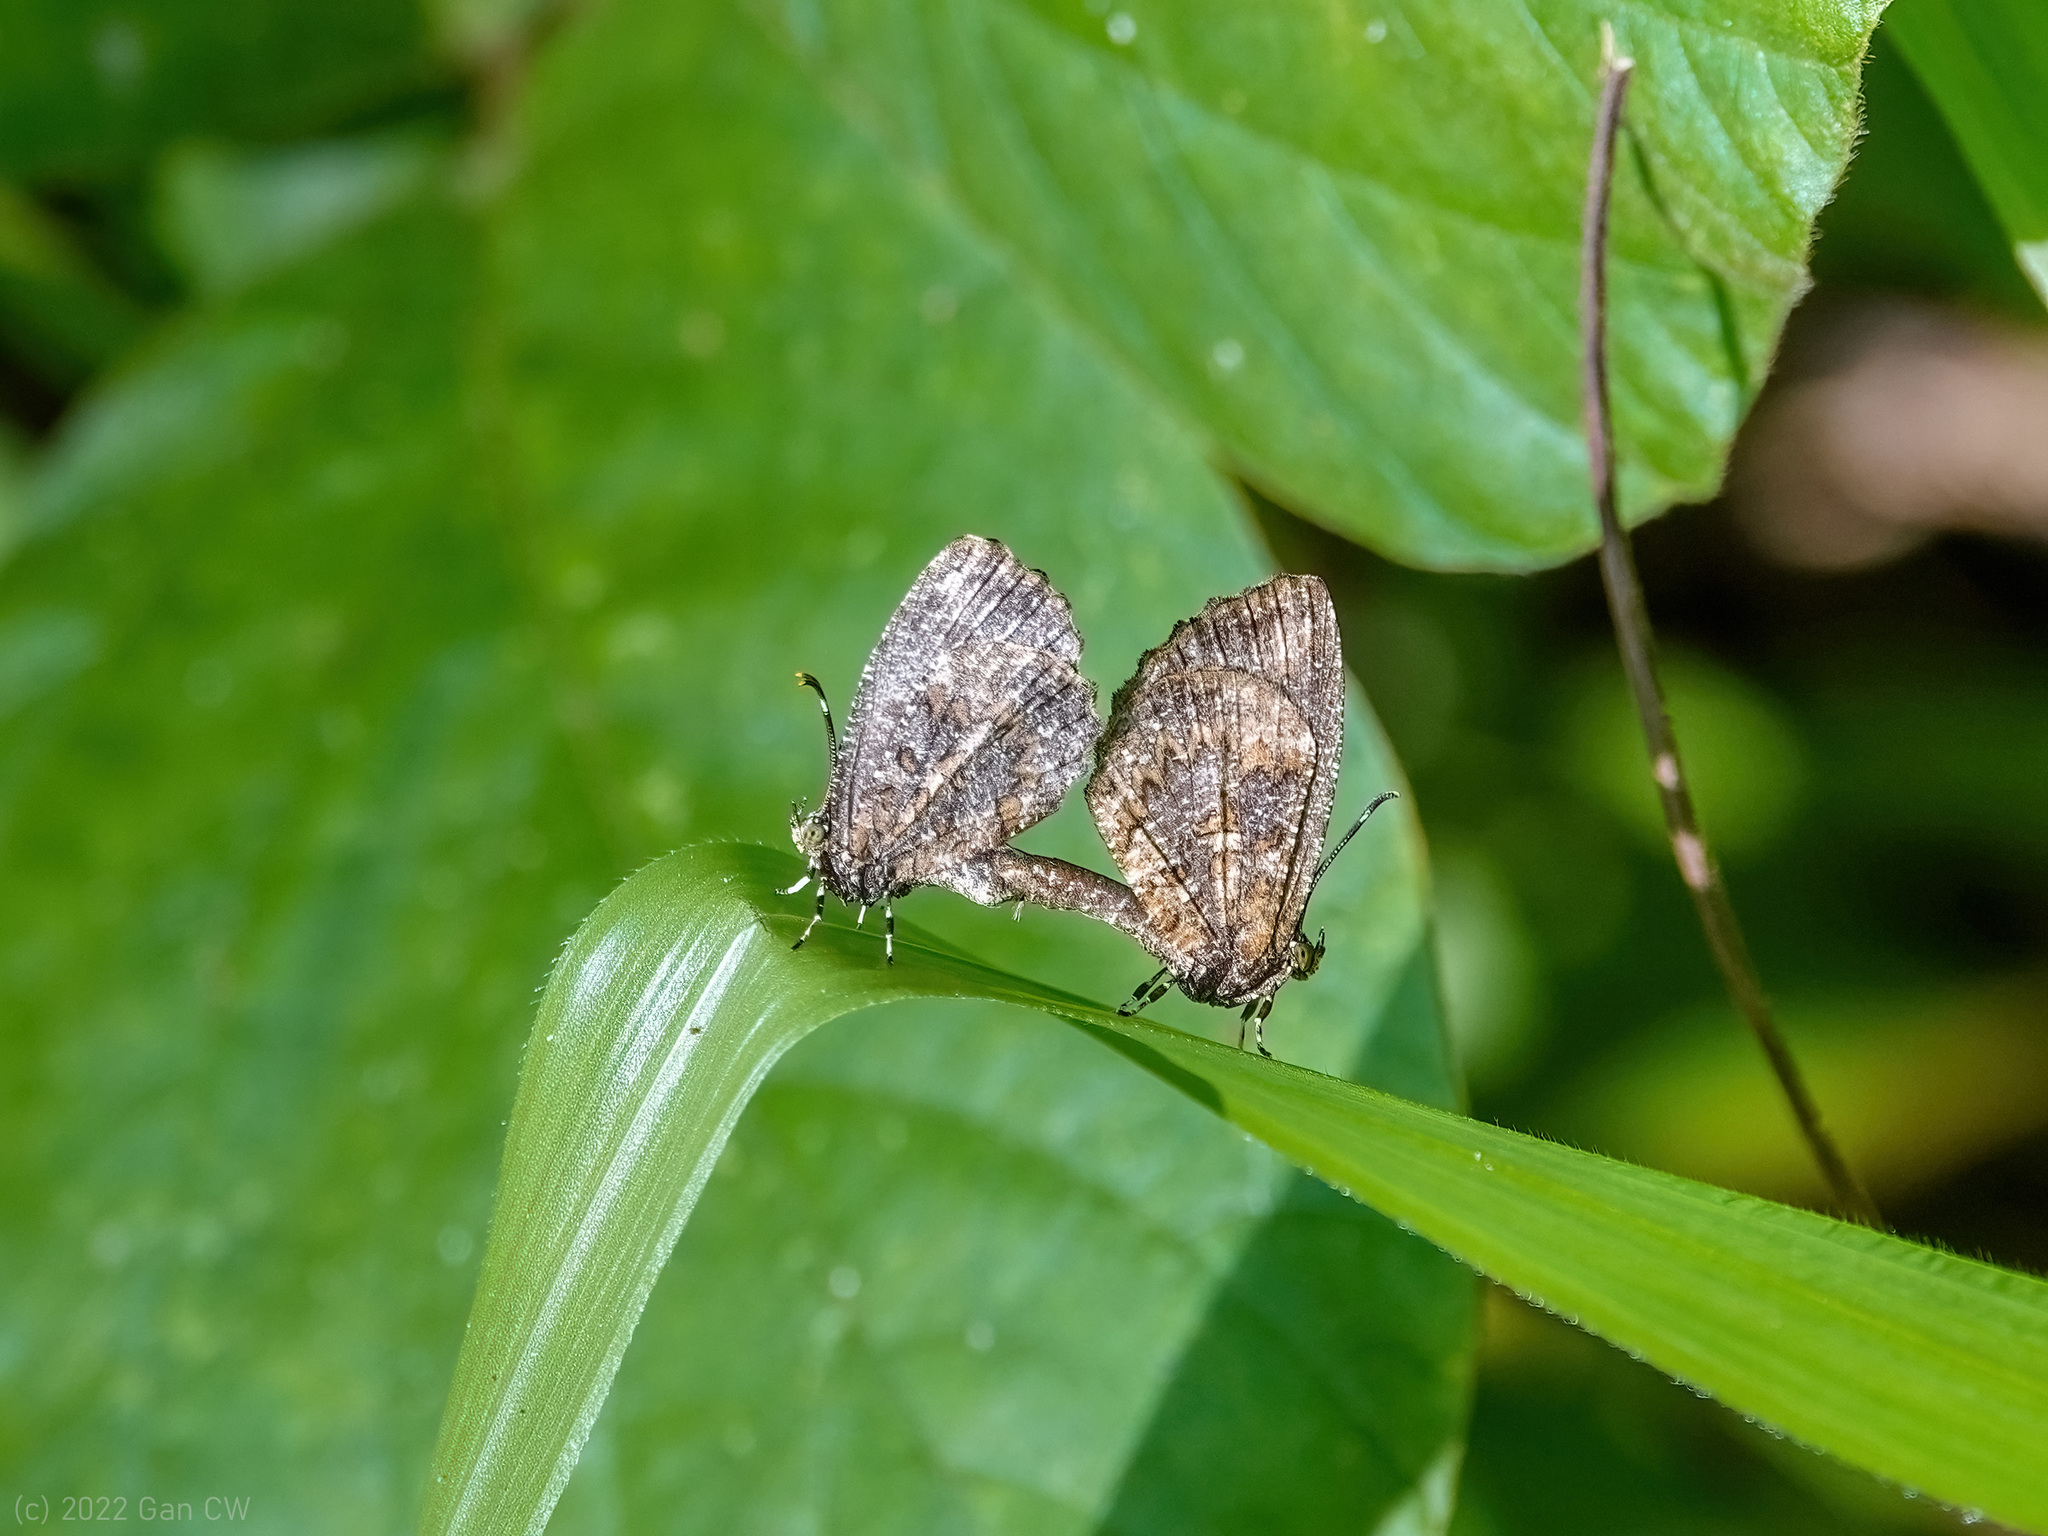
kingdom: Animalia
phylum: Arthropoda
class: Insecta
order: Lepidoptera
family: Lycaenidae
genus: Logania
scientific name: Logania marmorata
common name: Pale mottle
